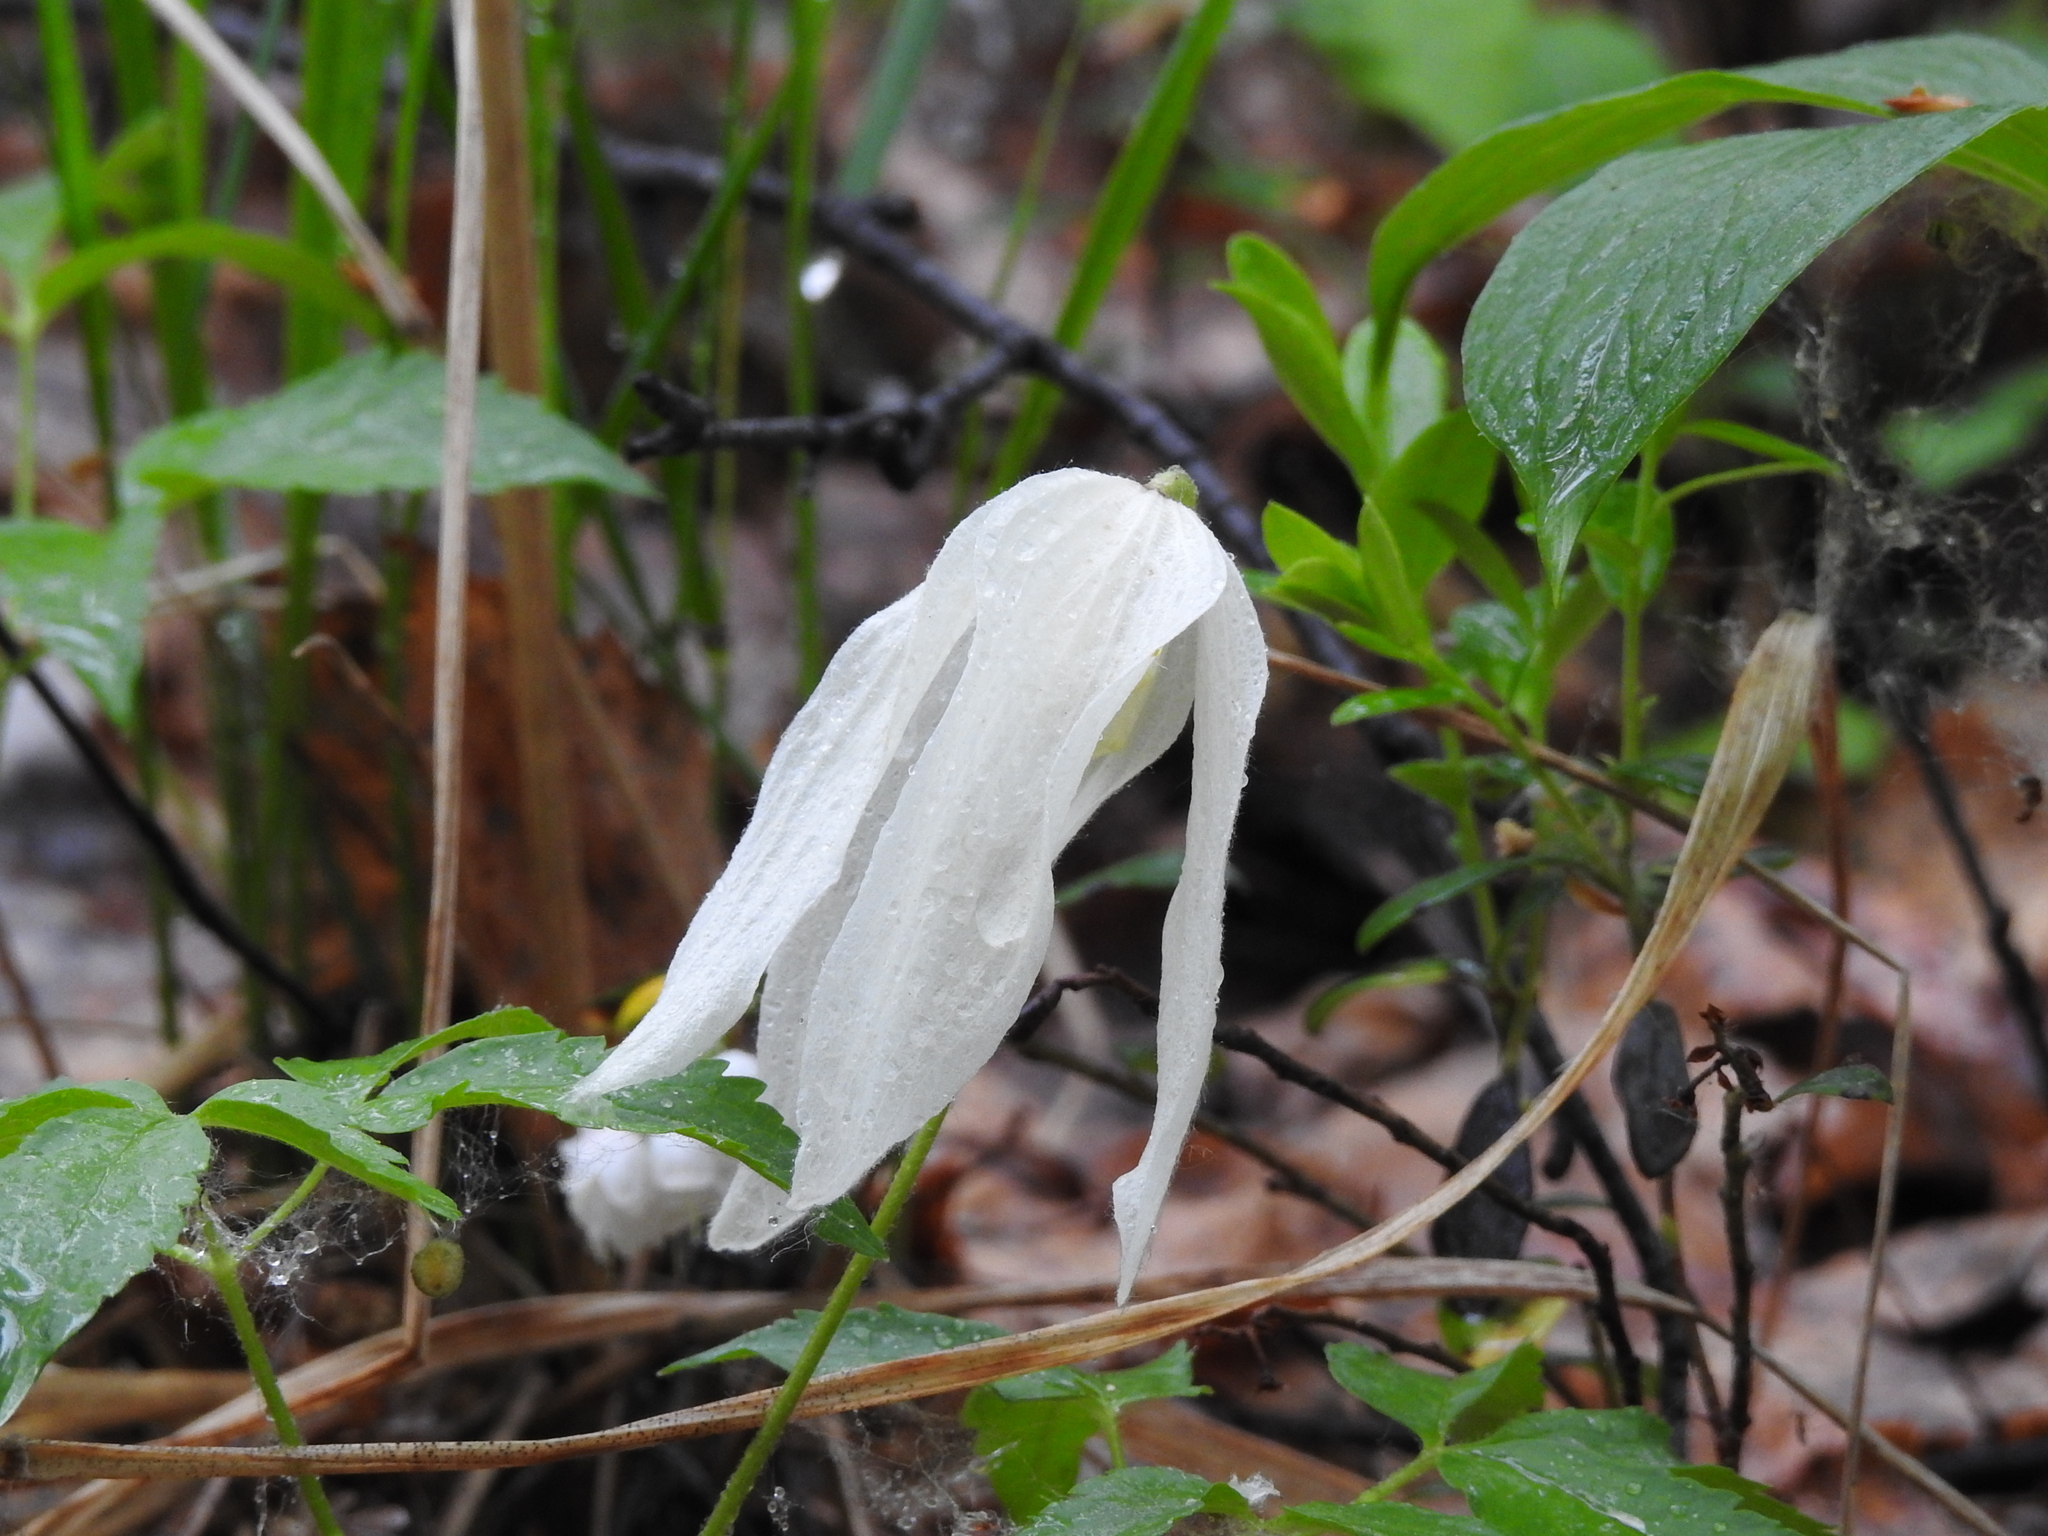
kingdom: Plantae
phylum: Tracheophyta
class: Magnoliopsida
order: Ranunculales
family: Ranunculaceae
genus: Clematis
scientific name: Clematis sibirica
